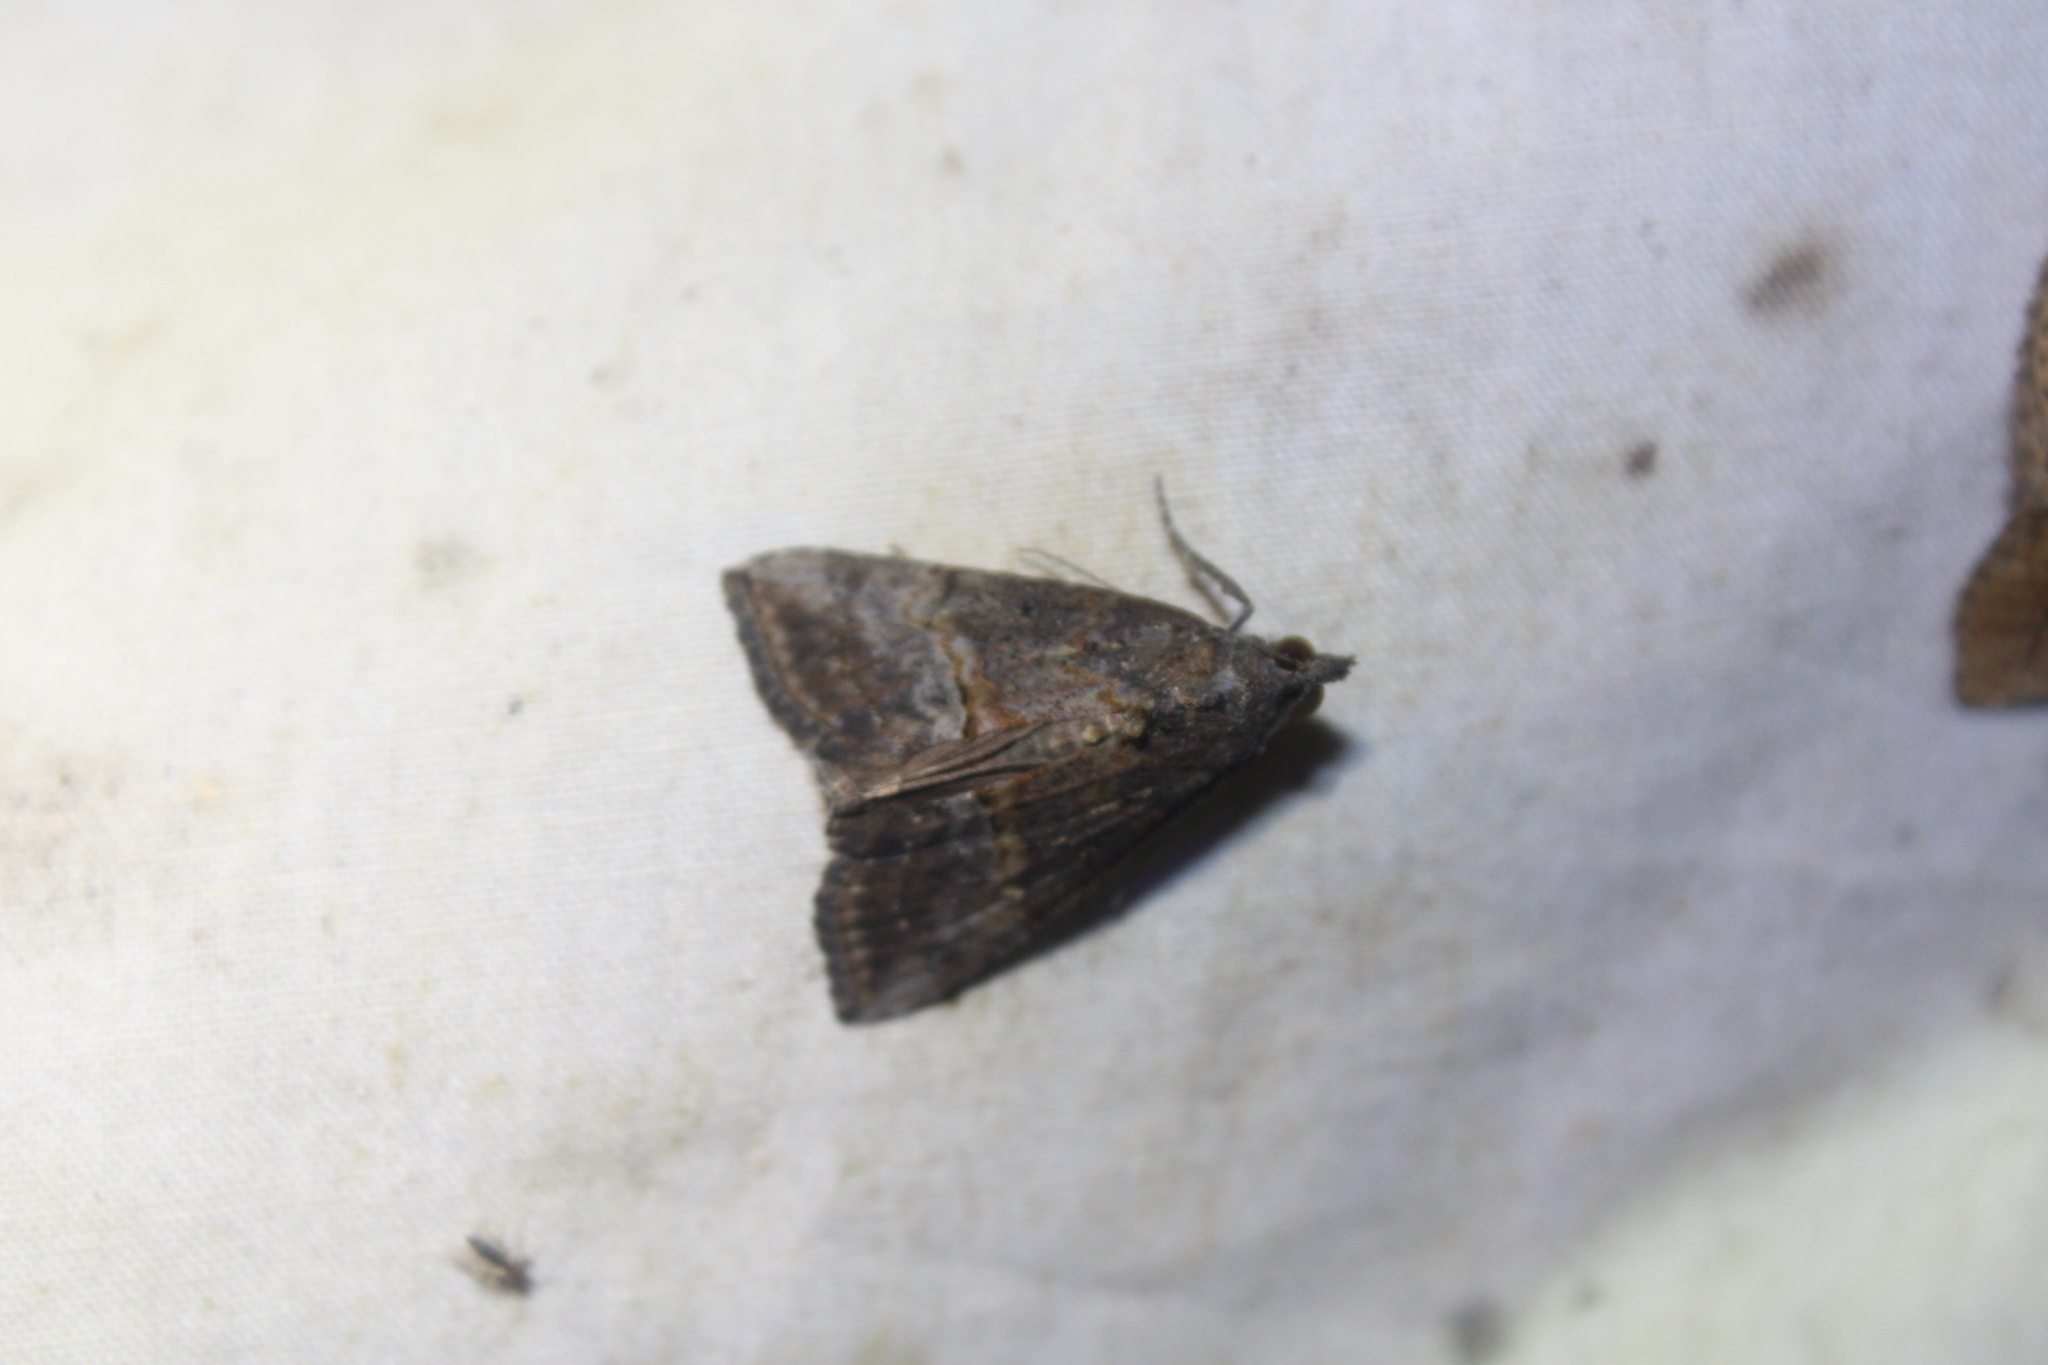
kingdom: Animalia
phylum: Arthropoda
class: Insecta
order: Lepidoptera
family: Erebidae
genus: Hypena
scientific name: Hypena scabra
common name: Green cloverworm
